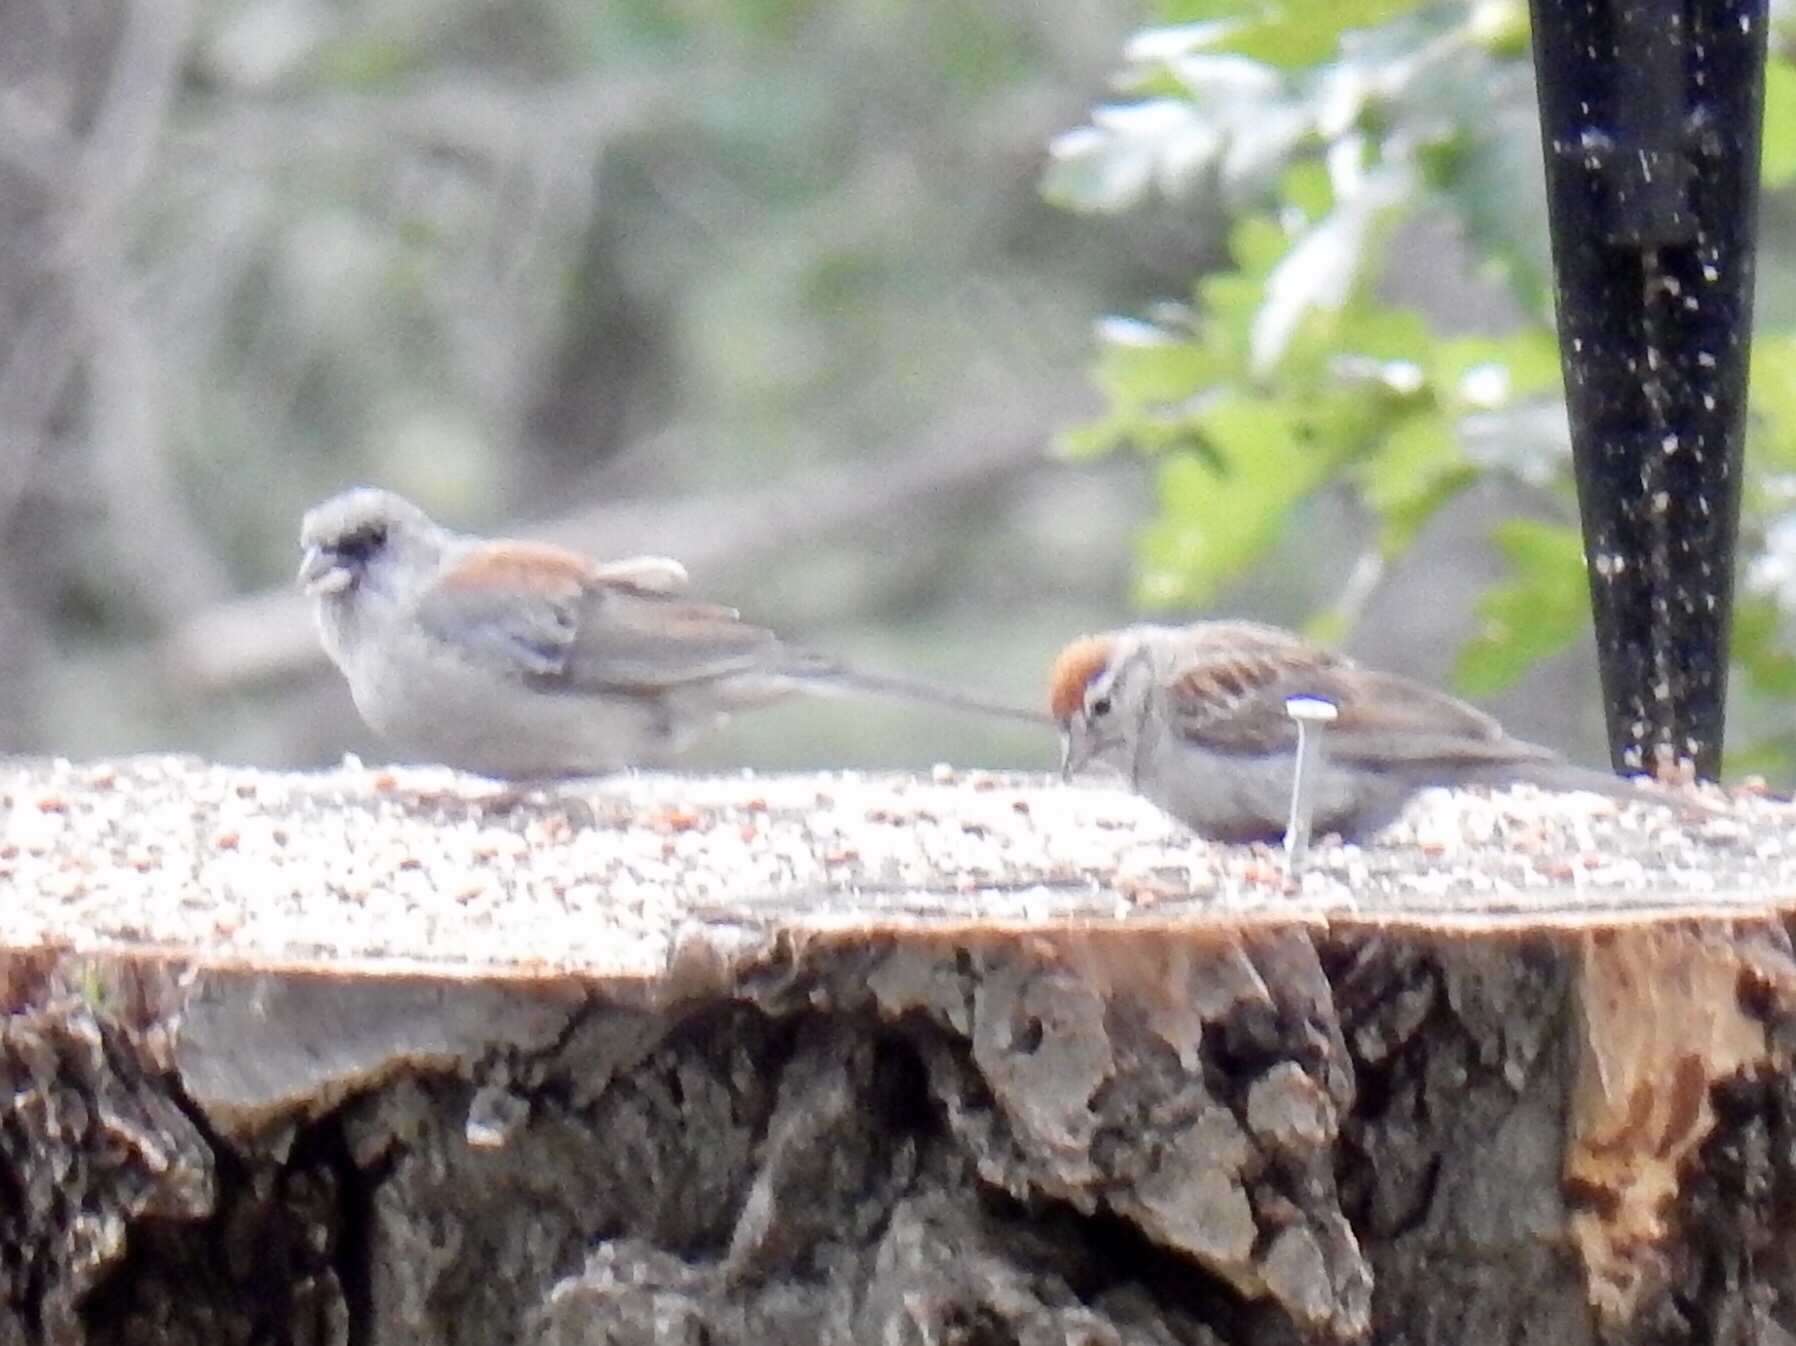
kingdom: Animalia
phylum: Chordata
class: Aves
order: Passeriformes
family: Passerellidae
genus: Junco
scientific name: Junco hyemalis
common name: Dark-eyed junco
